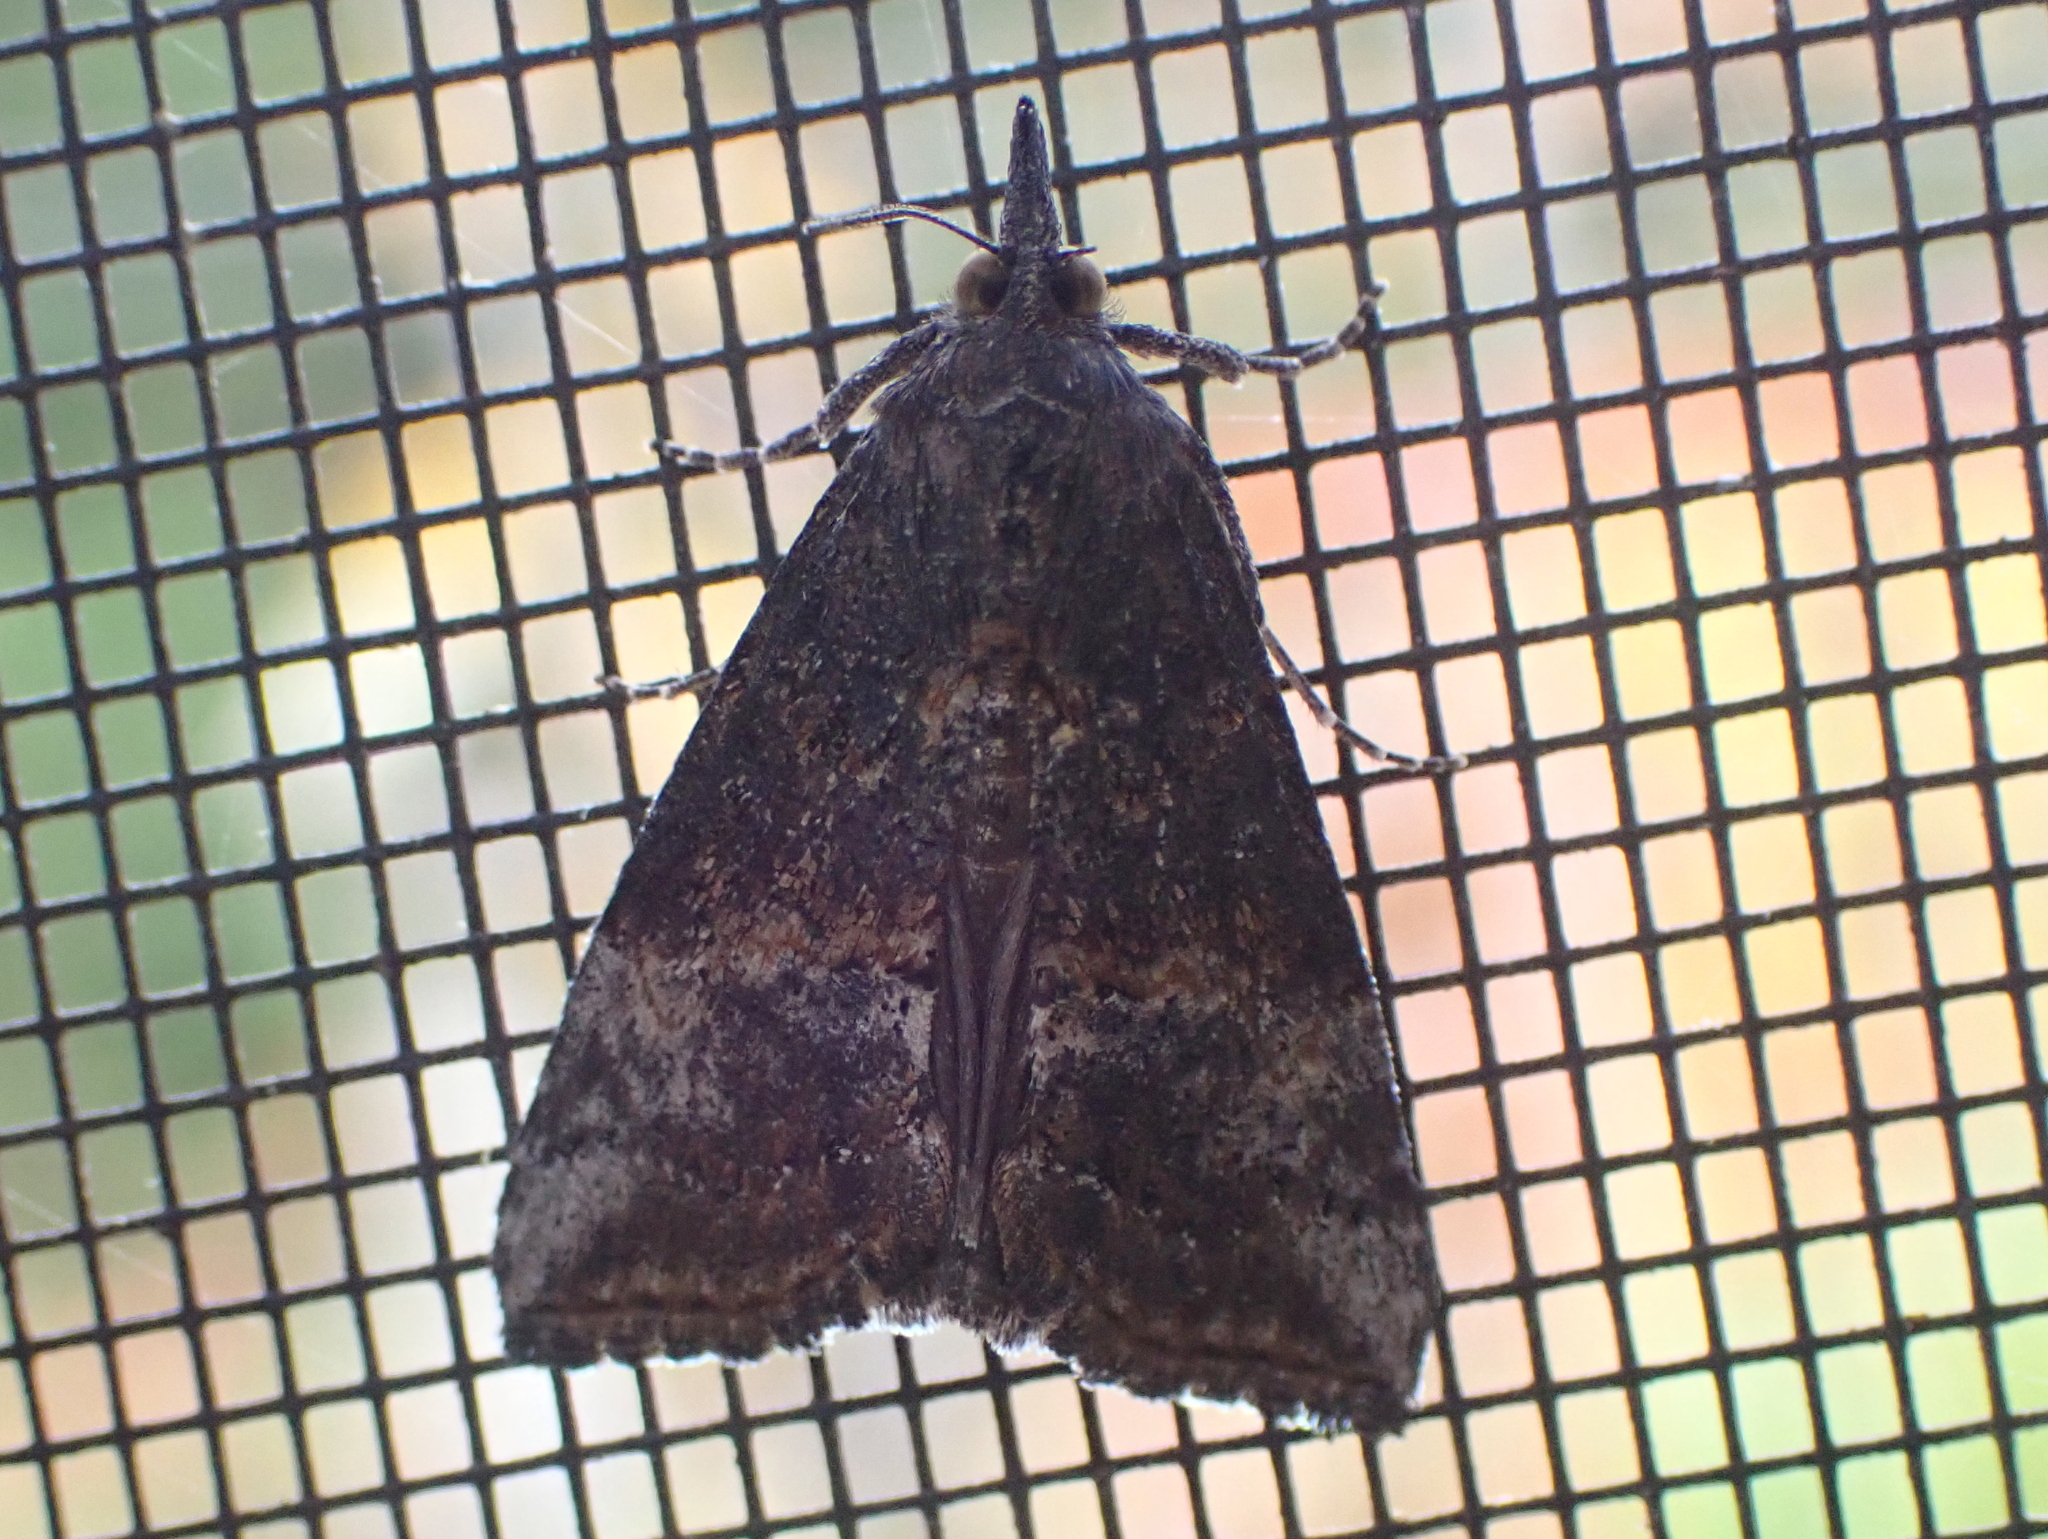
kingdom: Animalia
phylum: Arthropoda
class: Insecta
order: Lepidoptera
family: Erebidae
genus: Hypena
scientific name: Hypena scabra
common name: Green cloverworm
